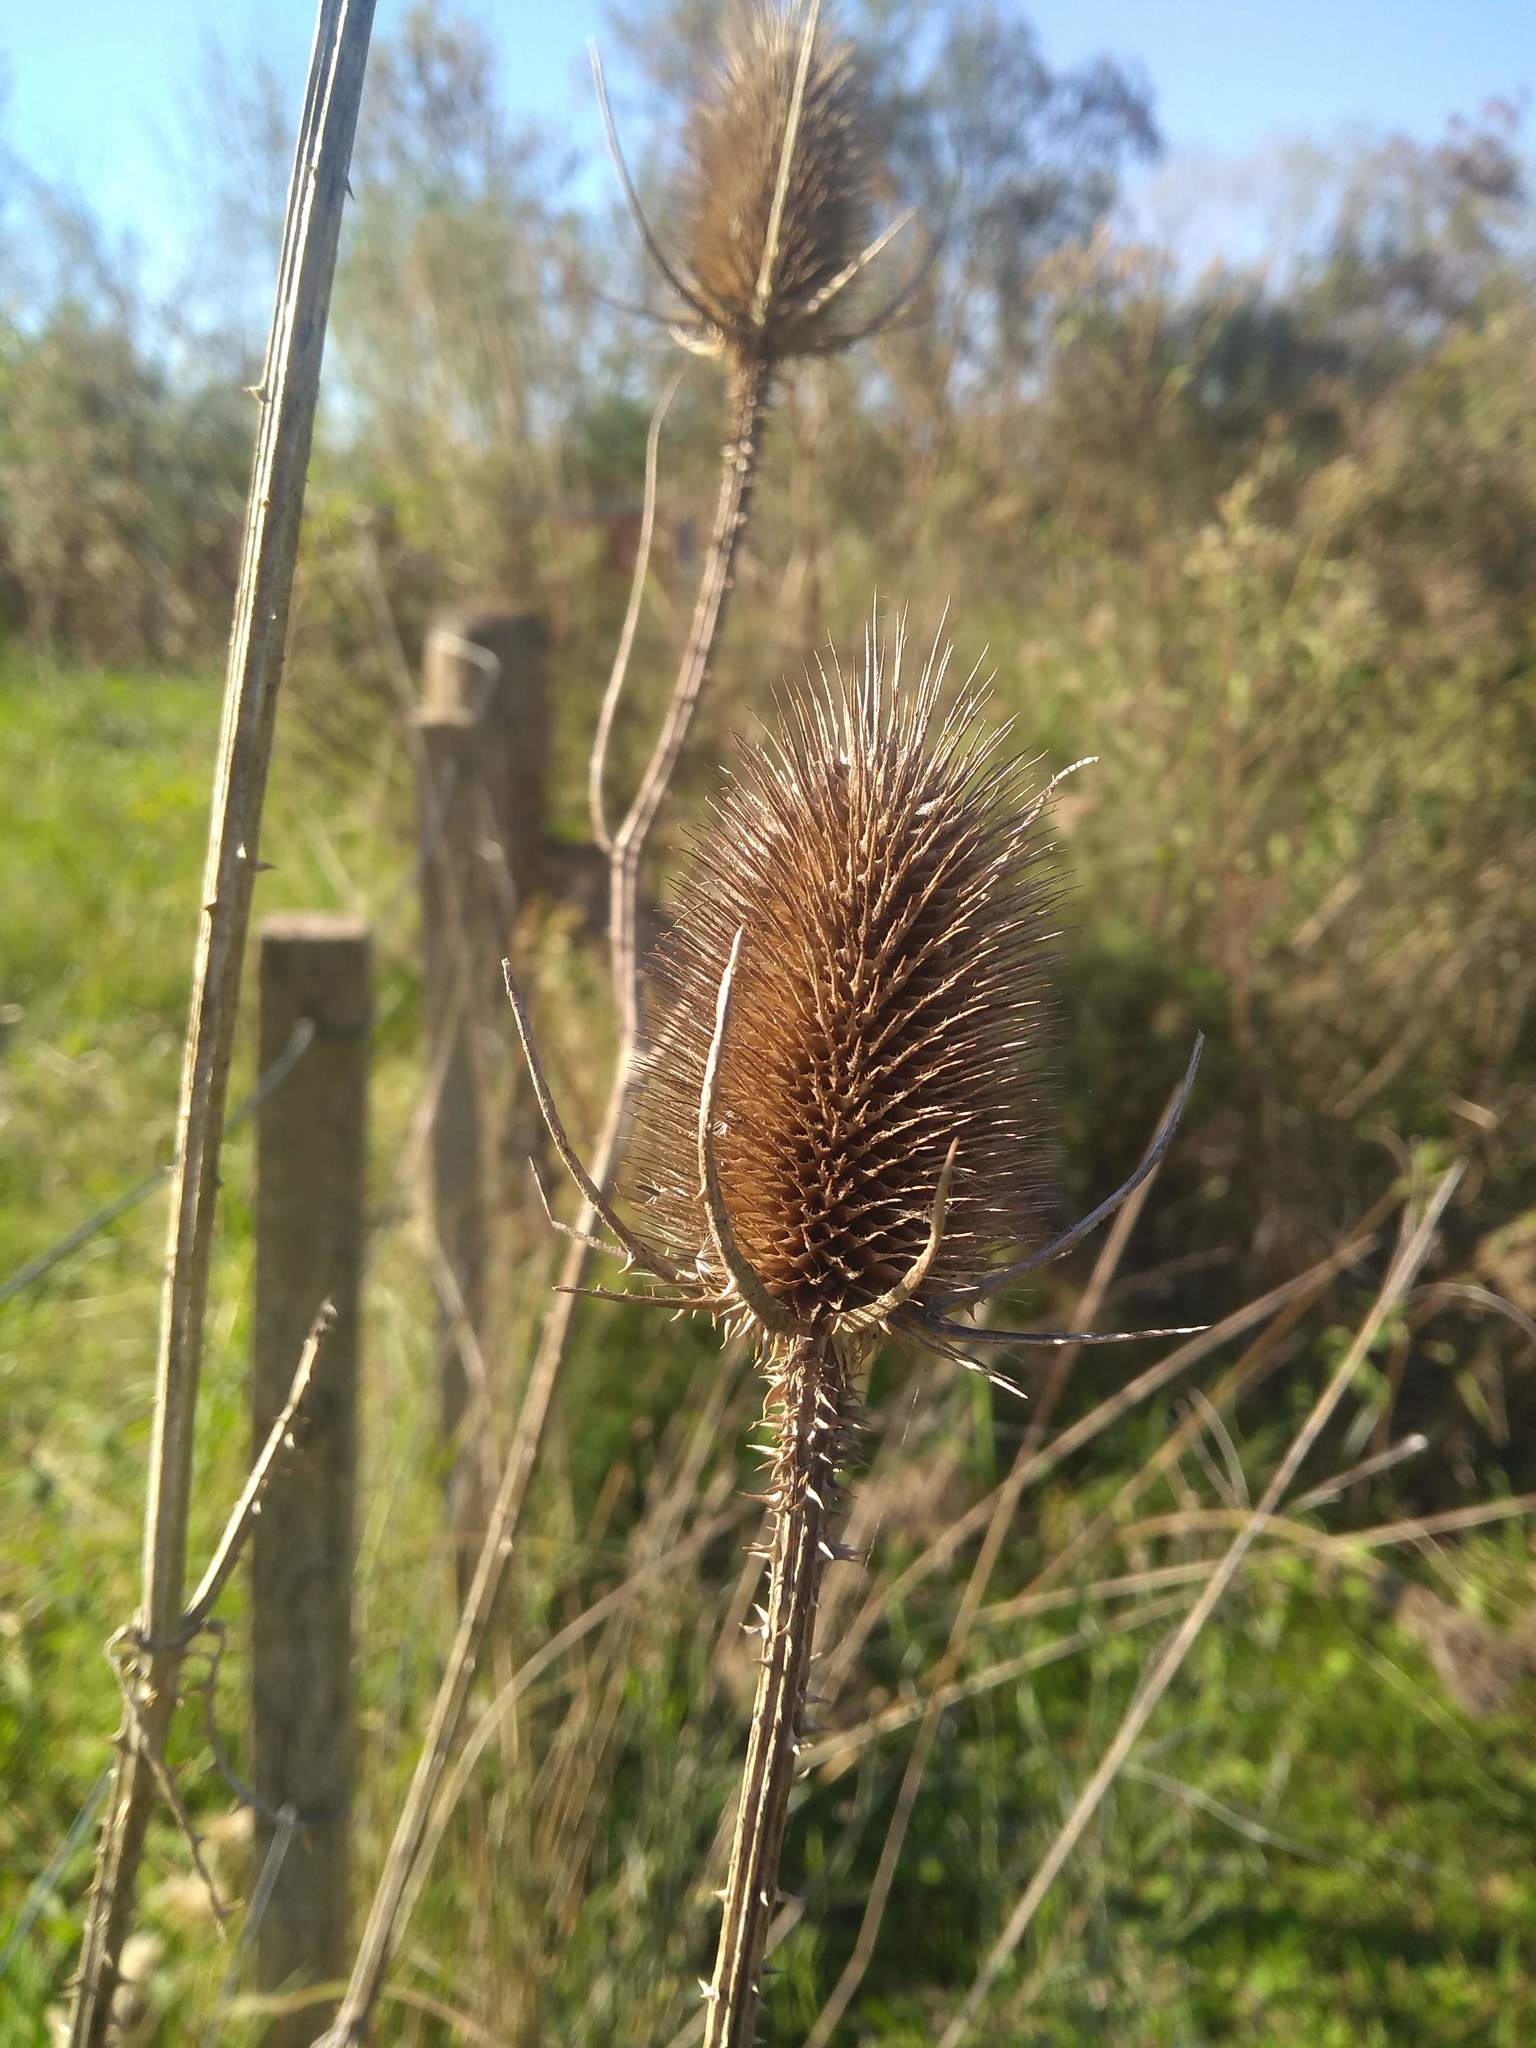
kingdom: Plantae
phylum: Tracheophyta
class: Magnoliopsida
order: Dipsacales
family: Caprifoliaceae
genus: Dipsacus
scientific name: Dipsacus fullonum
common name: Teasel
